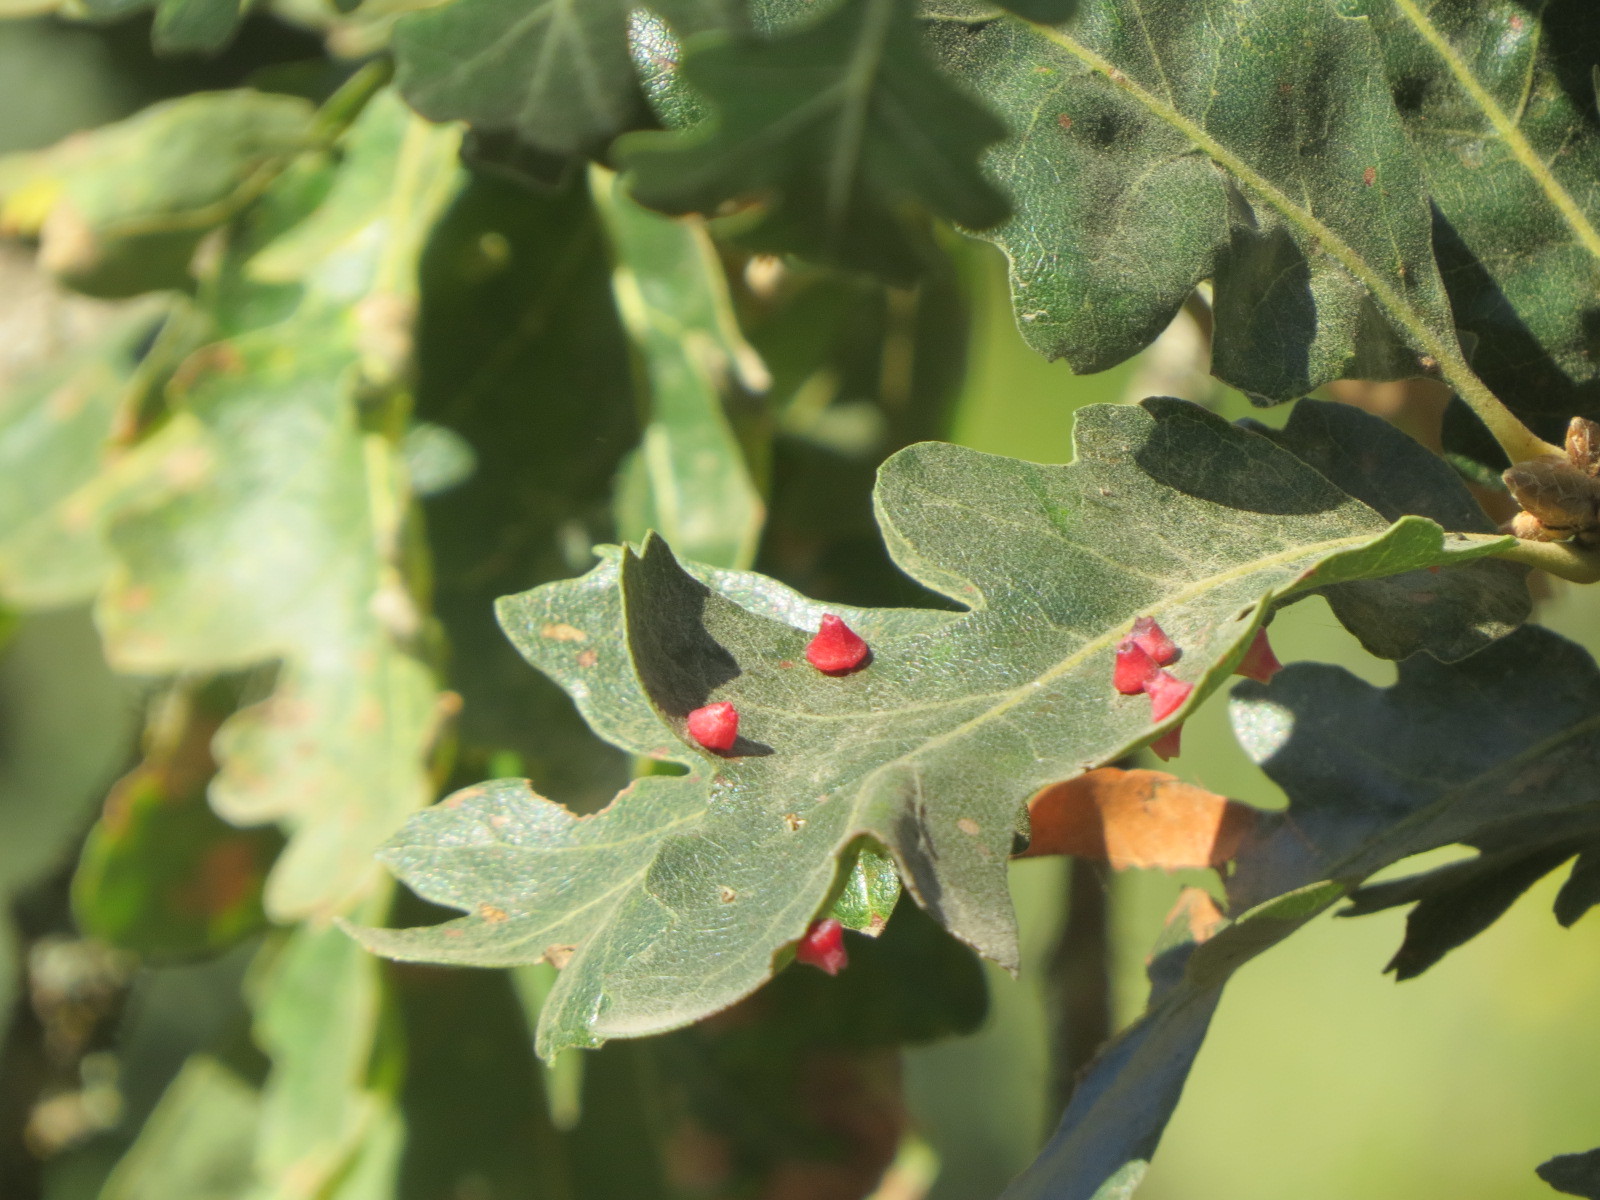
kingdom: Animalia
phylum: Arthropoda
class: Insecta
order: Hymenoptera
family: Cynipidae
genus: Andricus
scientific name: Andricus
